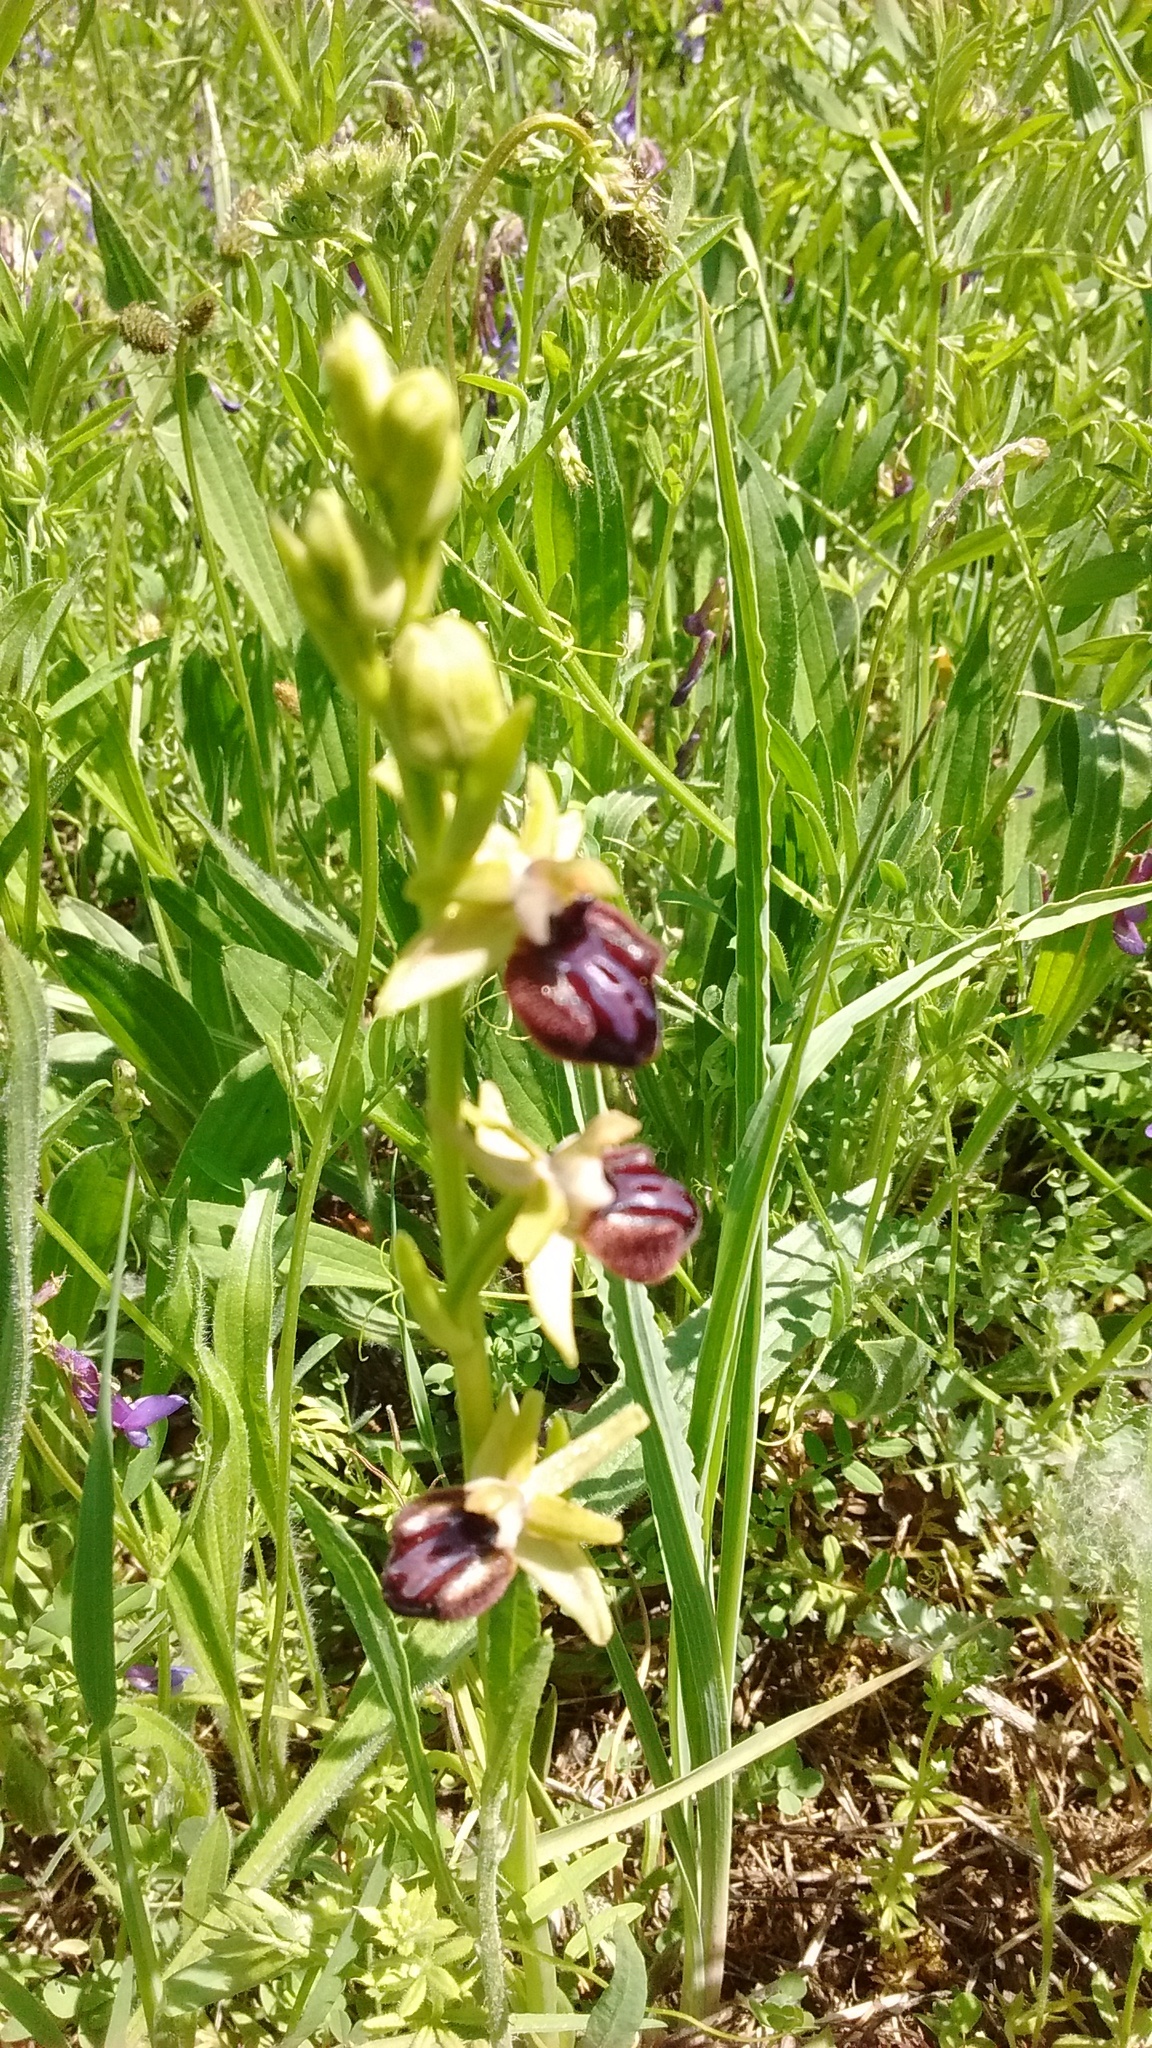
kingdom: Plantae
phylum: Tracheophyta
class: Liliopsida
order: Asparagales
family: Orchidaceae
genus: Ophrys
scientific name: Ophrys sphegodes
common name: Early spider-orchid
